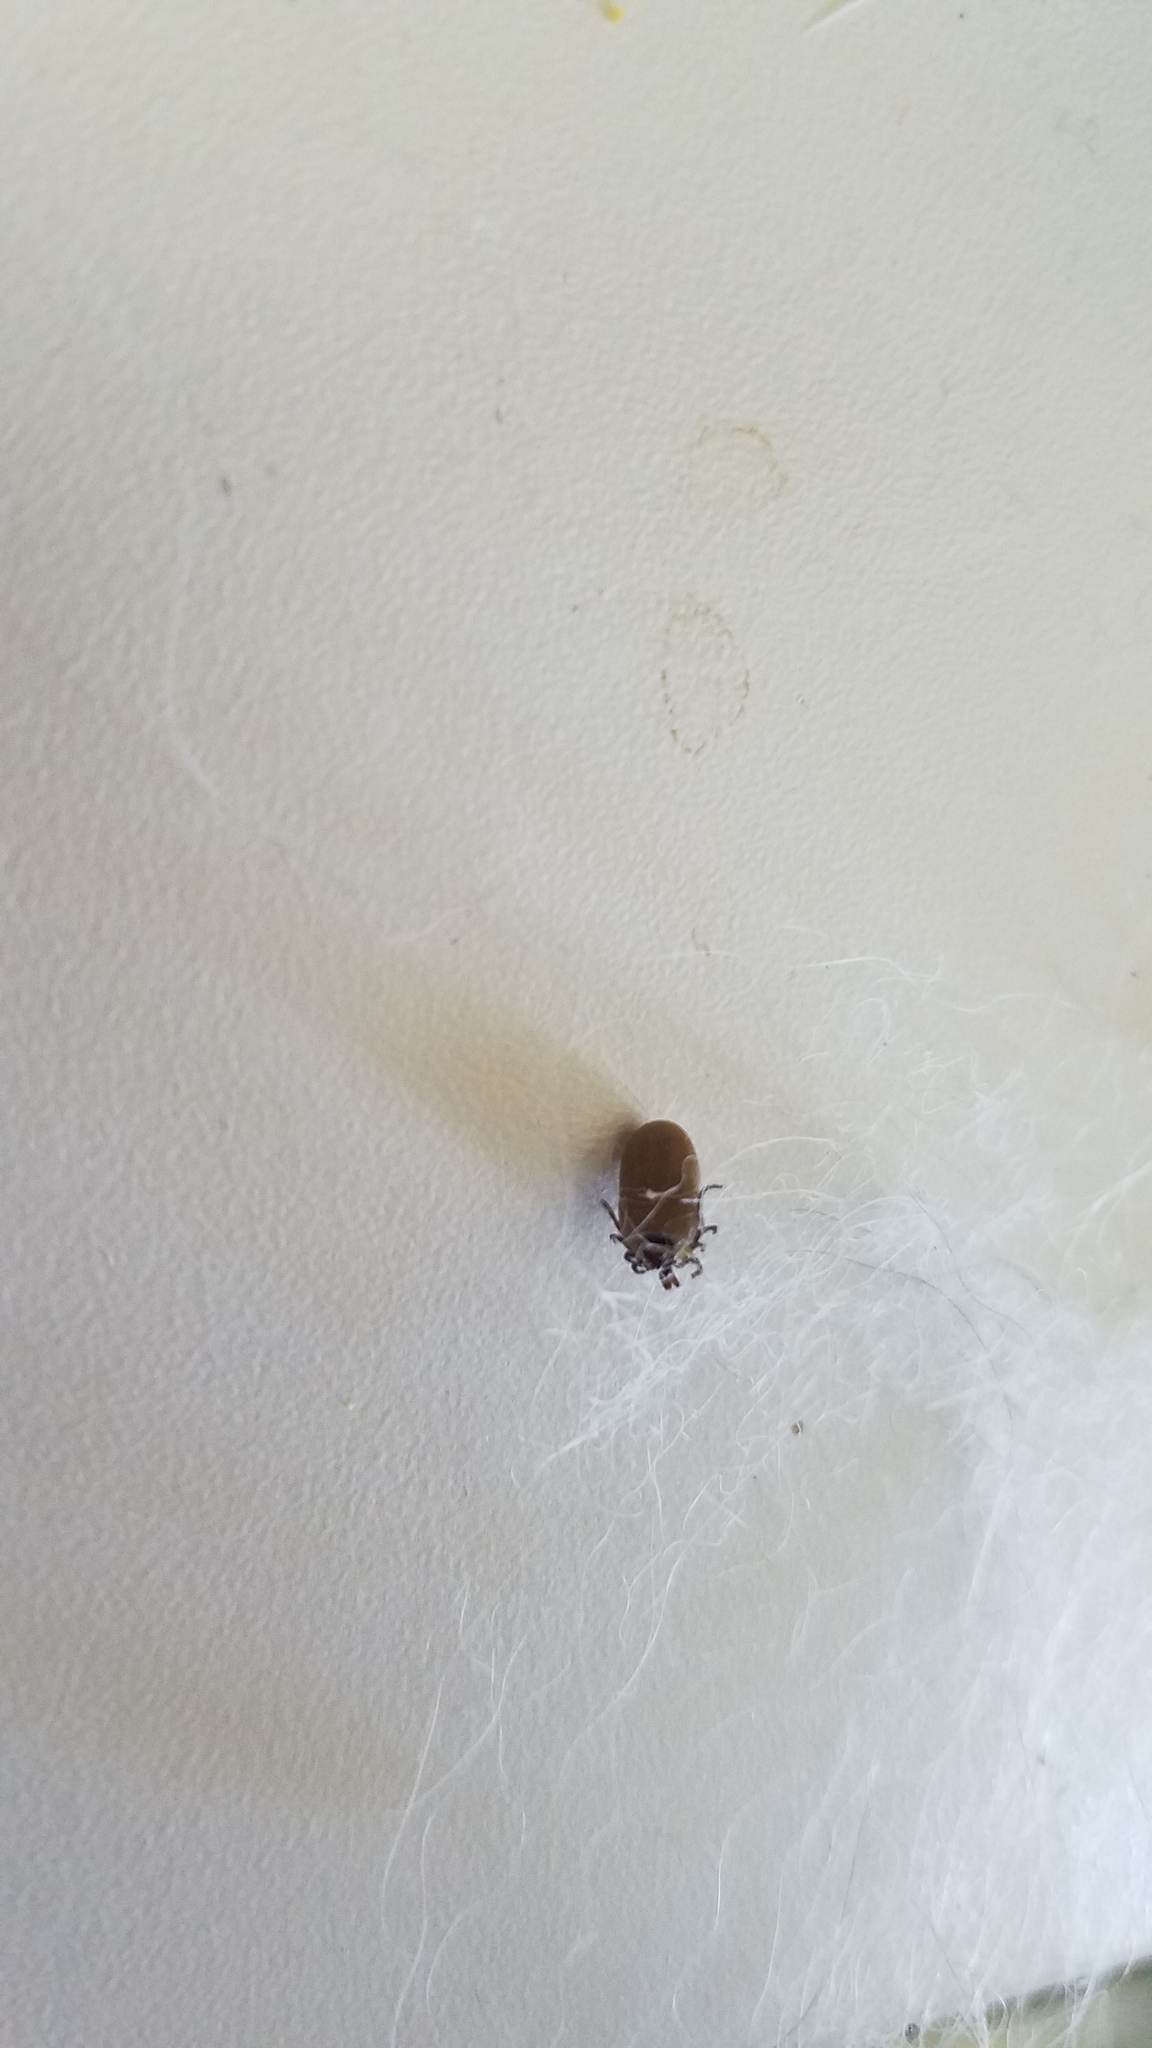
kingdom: Animalia
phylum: Arthropoda
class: Arachnida
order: Ixodida
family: Ixodidae
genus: Ixodes
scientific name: Ixodes scapularis
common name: Black legged tick
